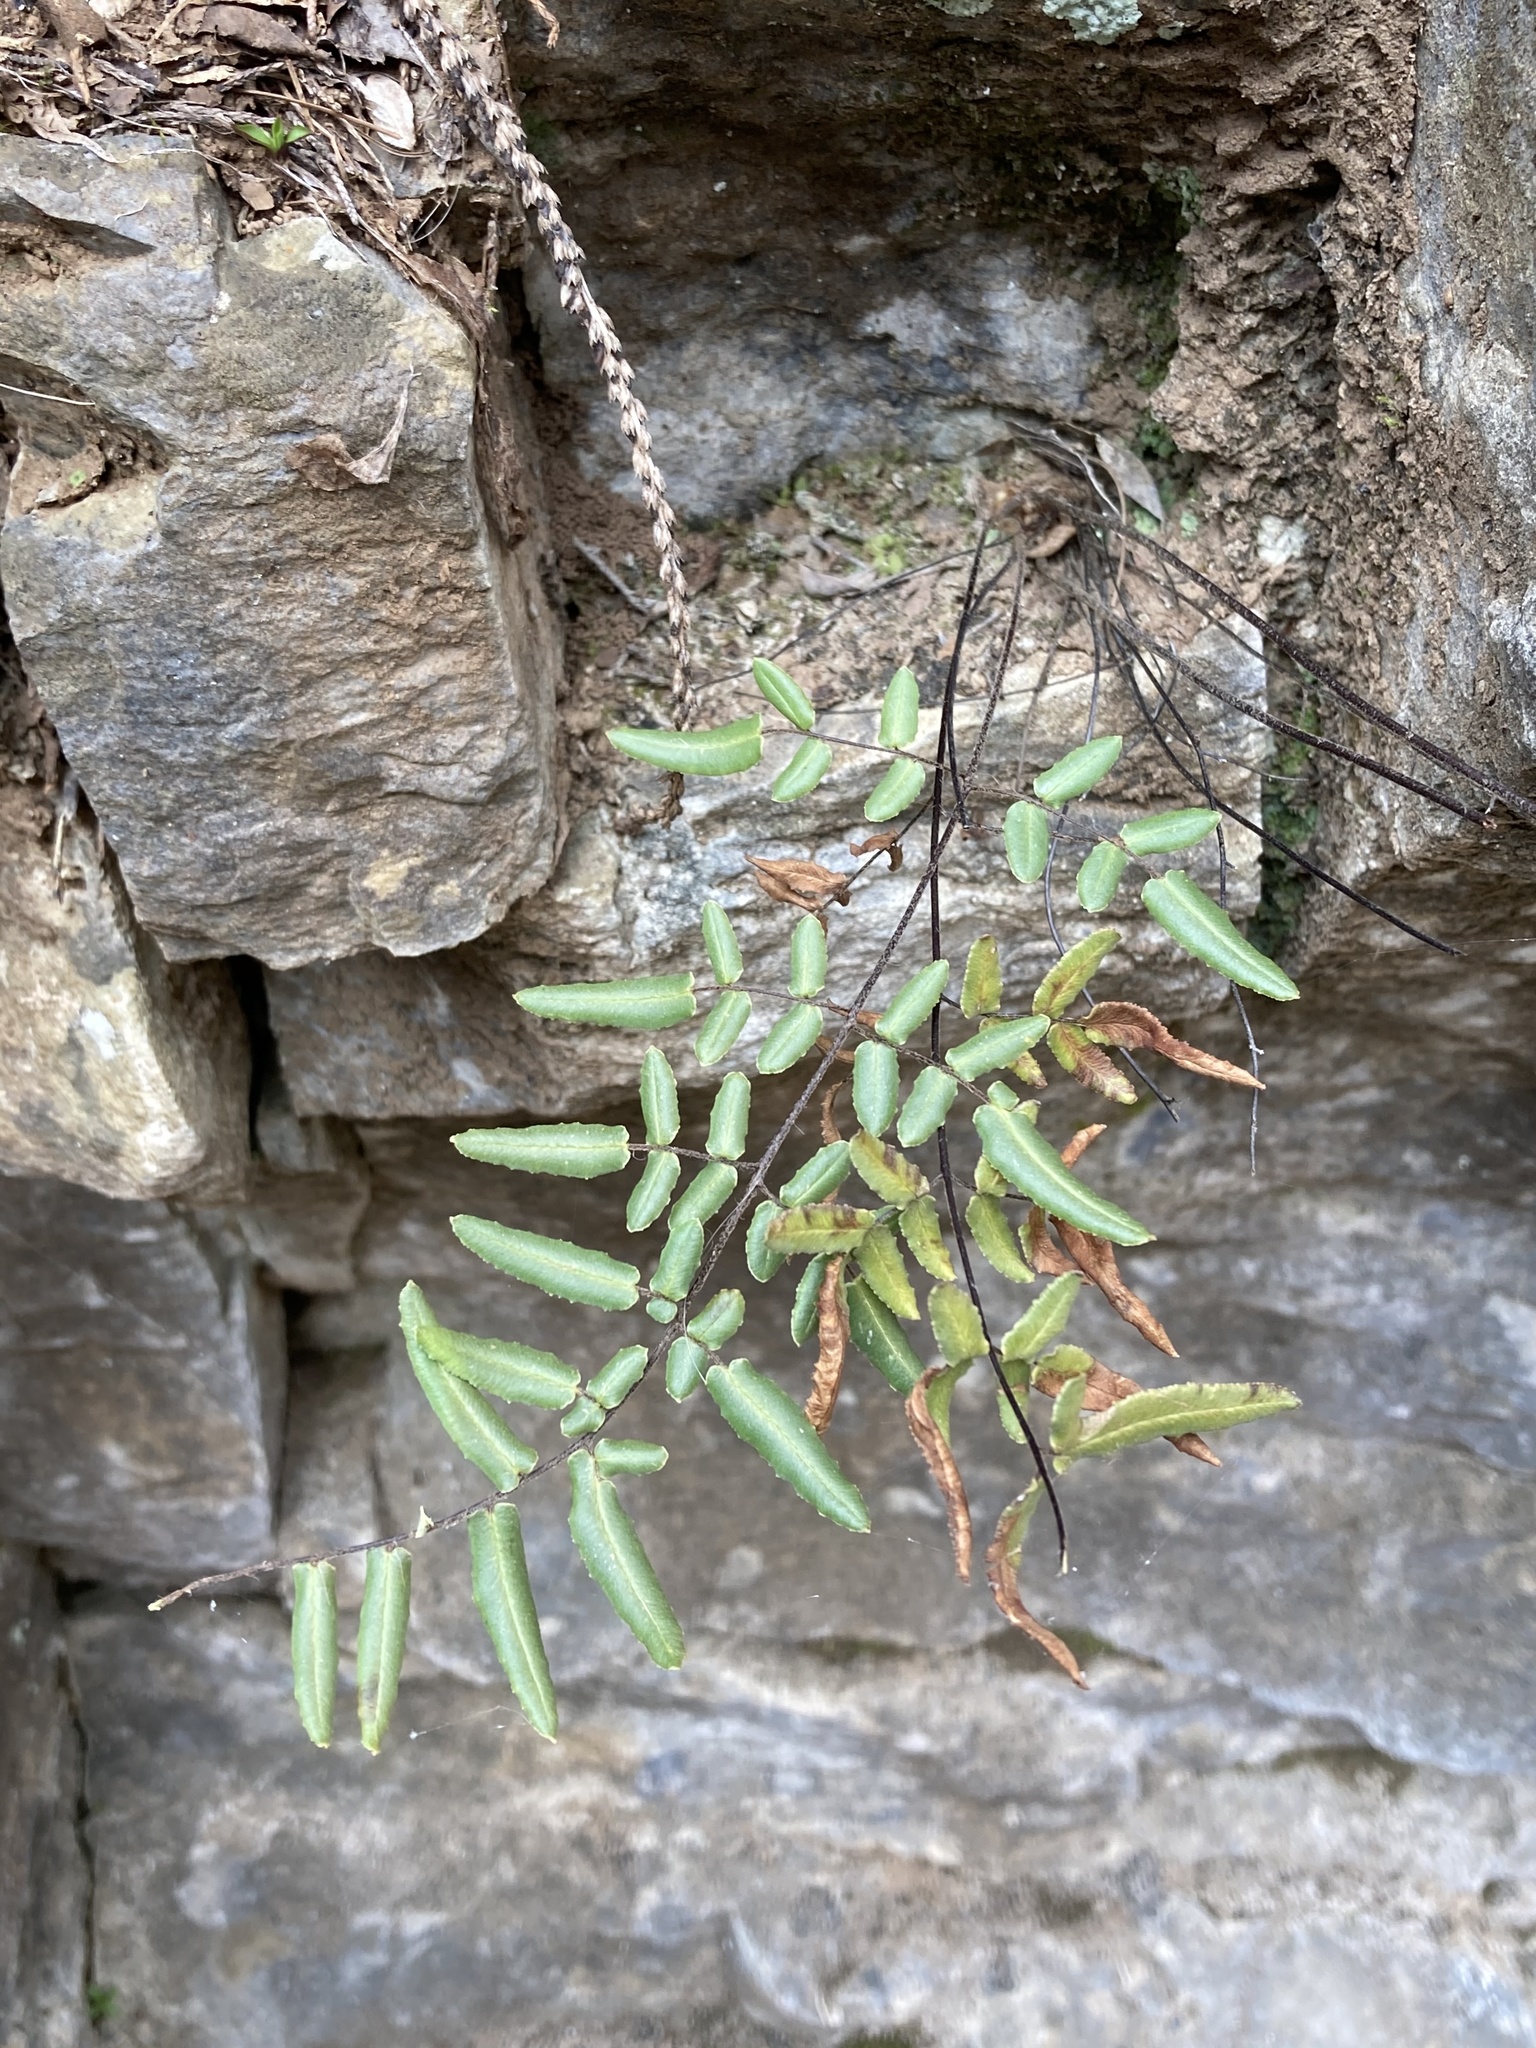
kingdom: Plantae
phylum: Tracheophyta
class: Polypodiopsida
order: Polypodiales
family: Pteridaceae
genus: Pellaea
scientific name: Pellaea atropurpurea
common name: Hairy cliffbrake
